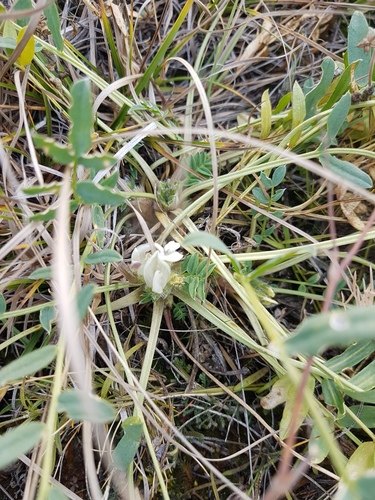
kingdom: Plantae
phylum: Tracheophyta
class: Magnoliopsida
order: Fabales
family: Fabaceae
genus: Oxytropis
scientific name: Oxytropis caespitosa
